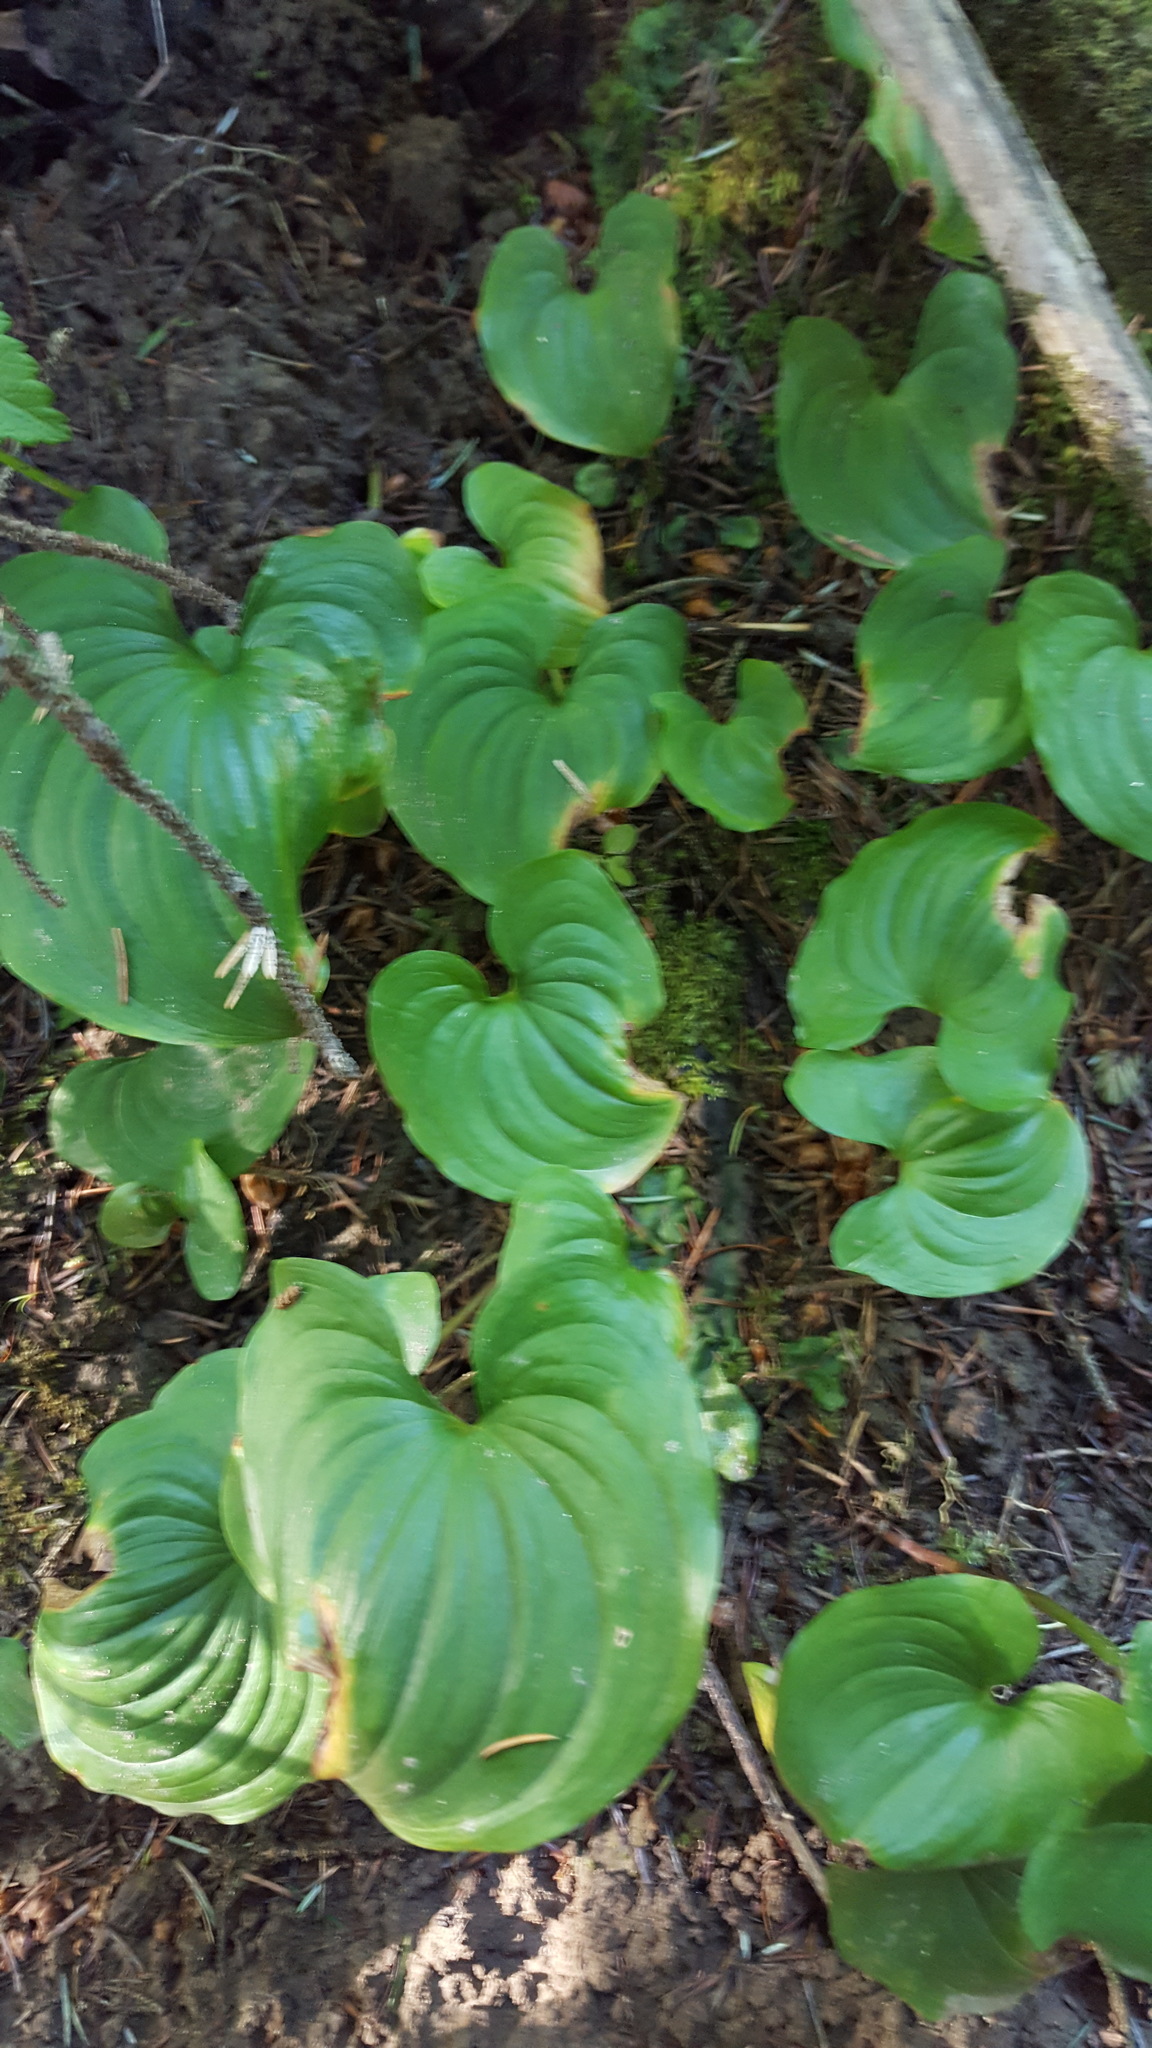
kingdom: Plantae
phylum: Tracheophyta
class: Liliopsida
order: Asparagales
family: Asparagaceae
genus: Maianthemum
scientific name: Maianthemum dilatatum
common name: False lily-of-the-valley
